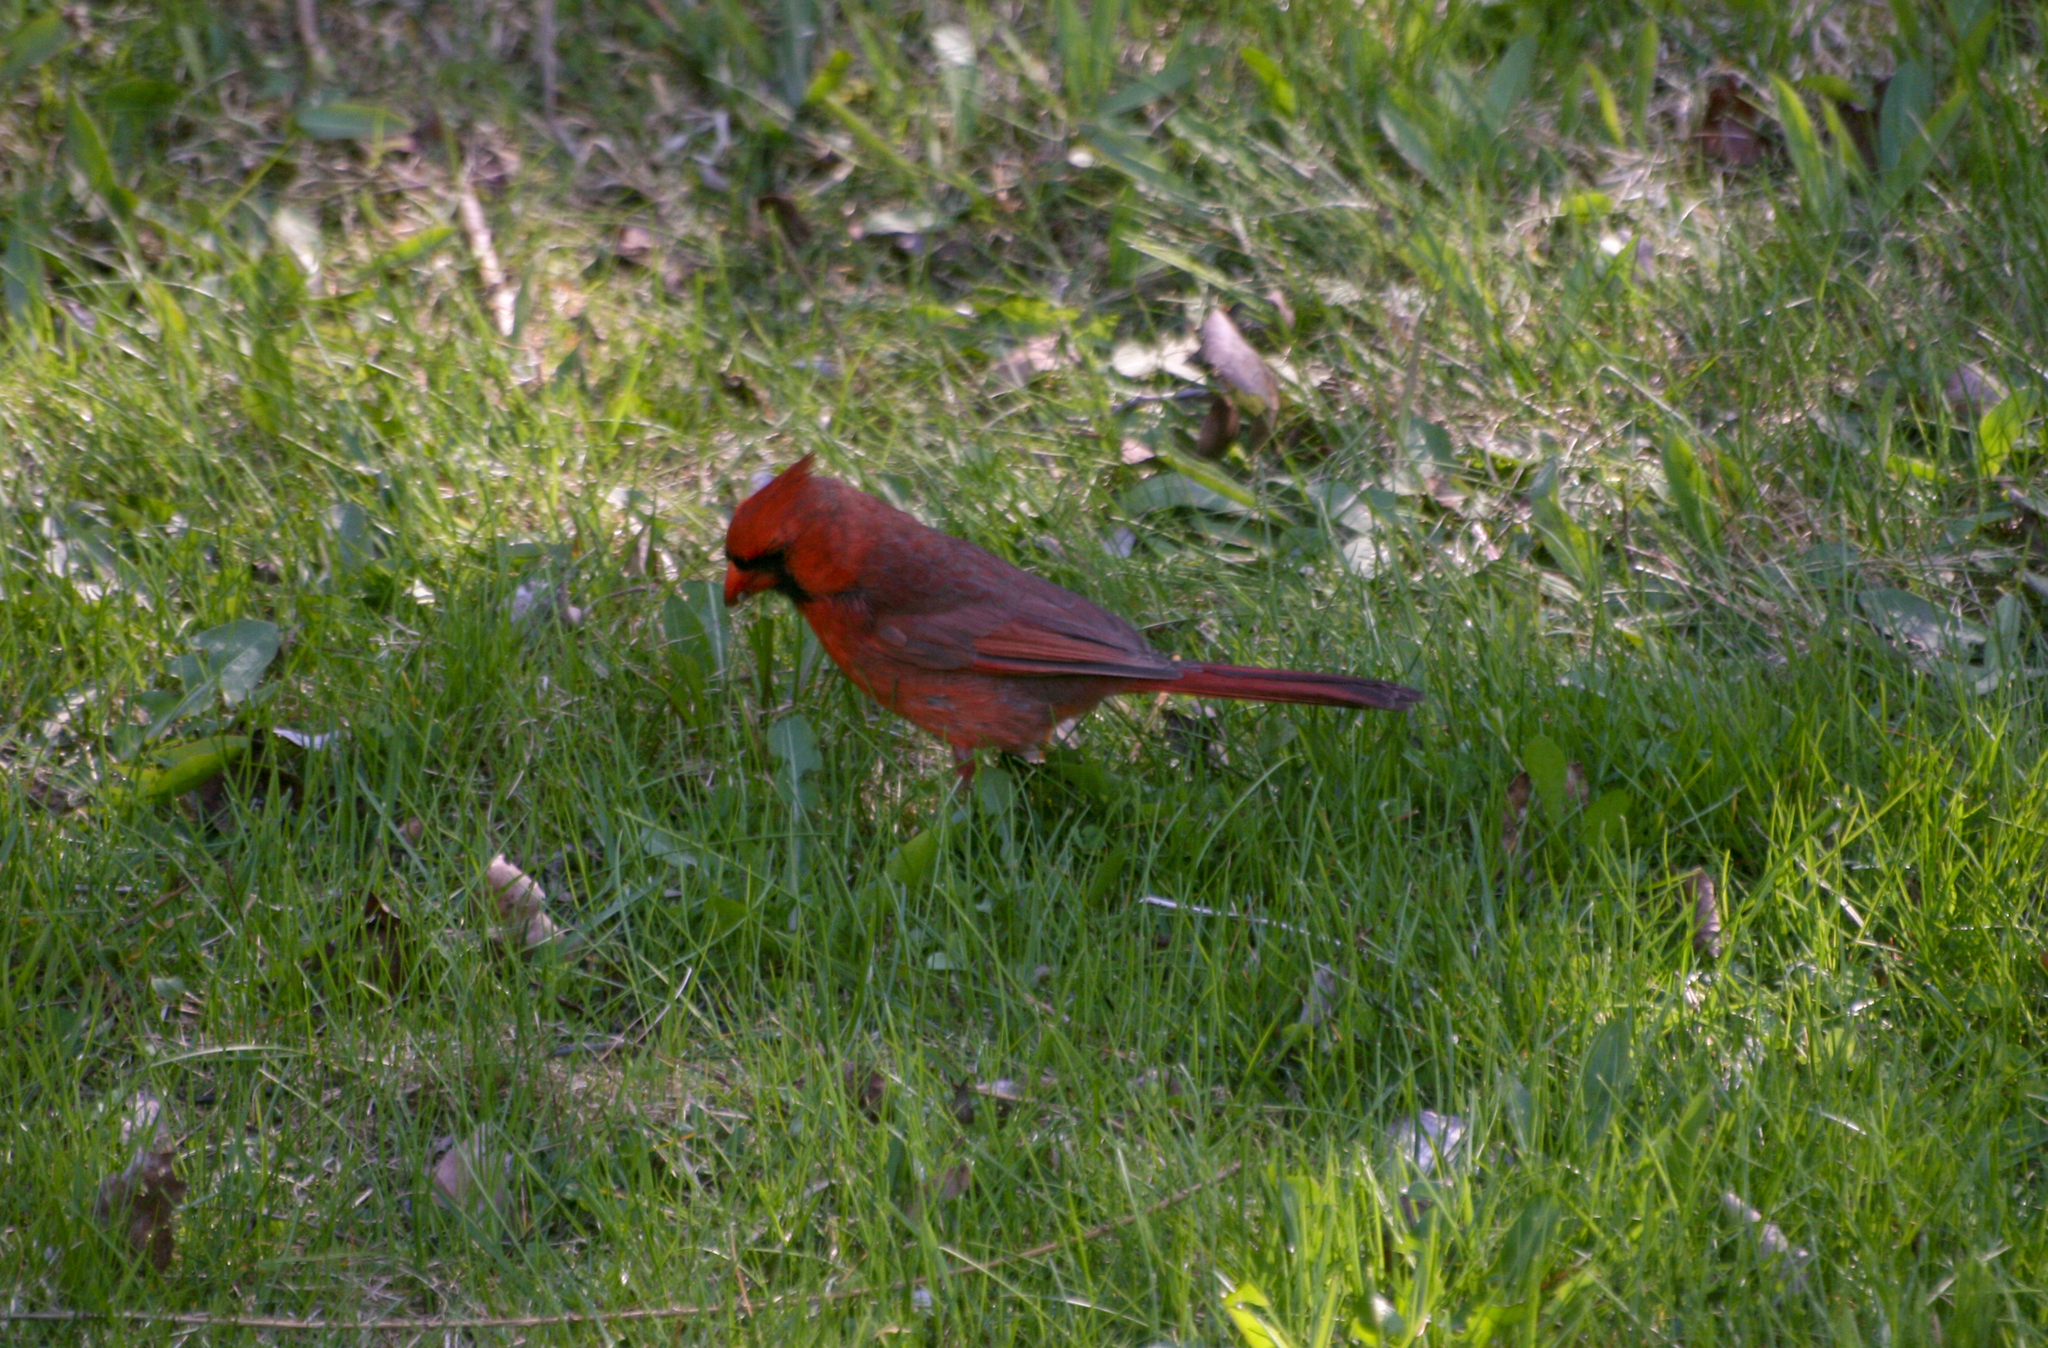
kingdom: Animalia
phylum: Chordata
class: Aves
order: Passeriformes
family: Cardinalidae
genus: Cardinalis
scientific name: Cardinalis cardinalis
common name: Northern cardinal
